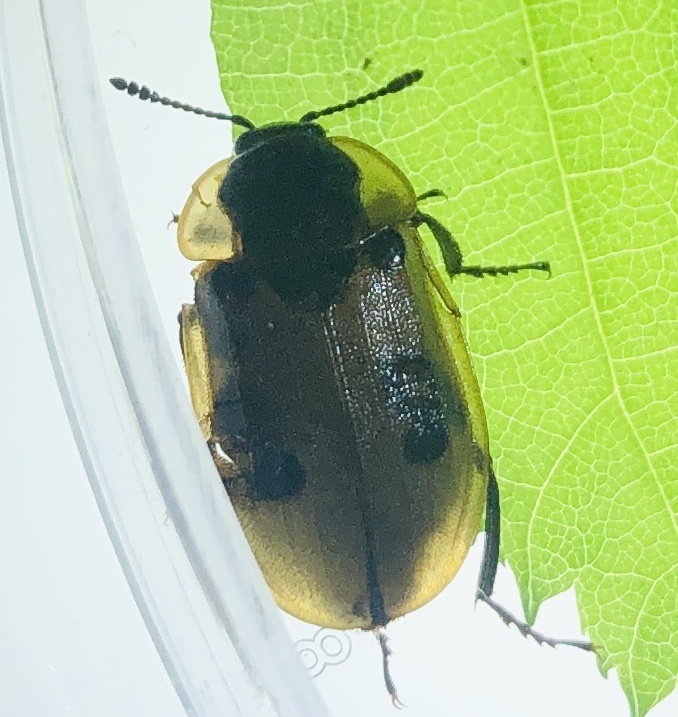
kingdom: Animalia
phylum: Arthropoda
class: Insecta
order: Coleoptera
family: Staphylinidae
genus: Dendroxena
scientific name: Dendroxena quadrimaculata
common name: Carrion beetle
